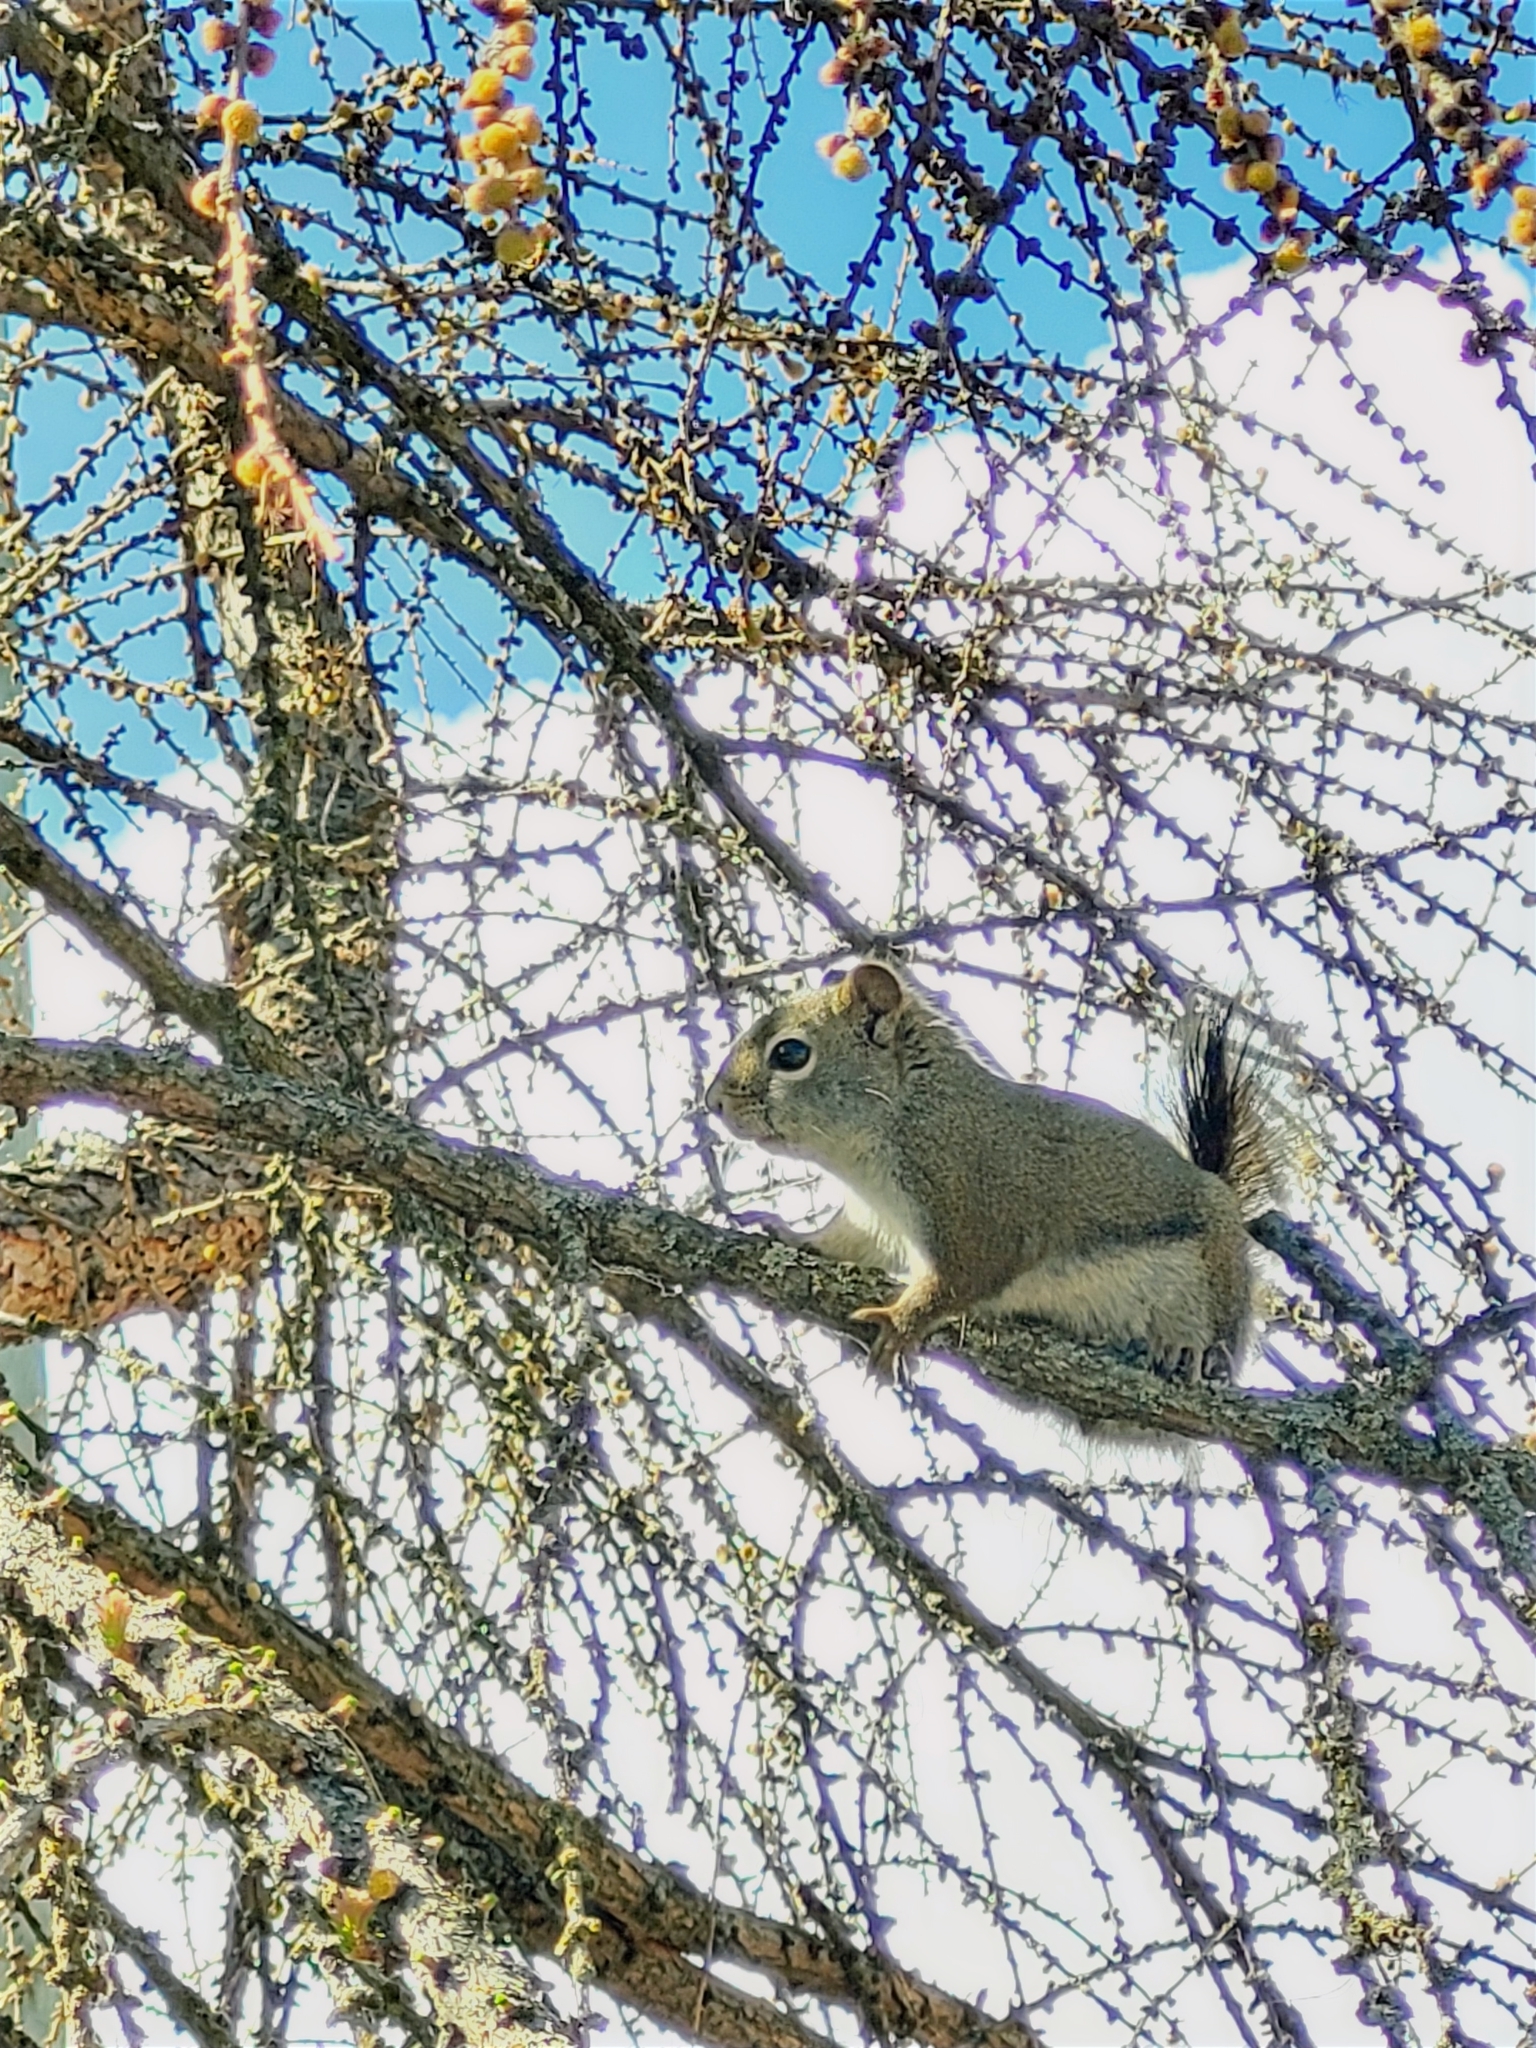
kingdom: Animalia
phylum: Chordata
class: Mammalia
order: Rodentia
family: Sciuridae
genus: Tamiasciurus
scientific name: Tamiasciurus hudsonicus
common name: Red squirrel
